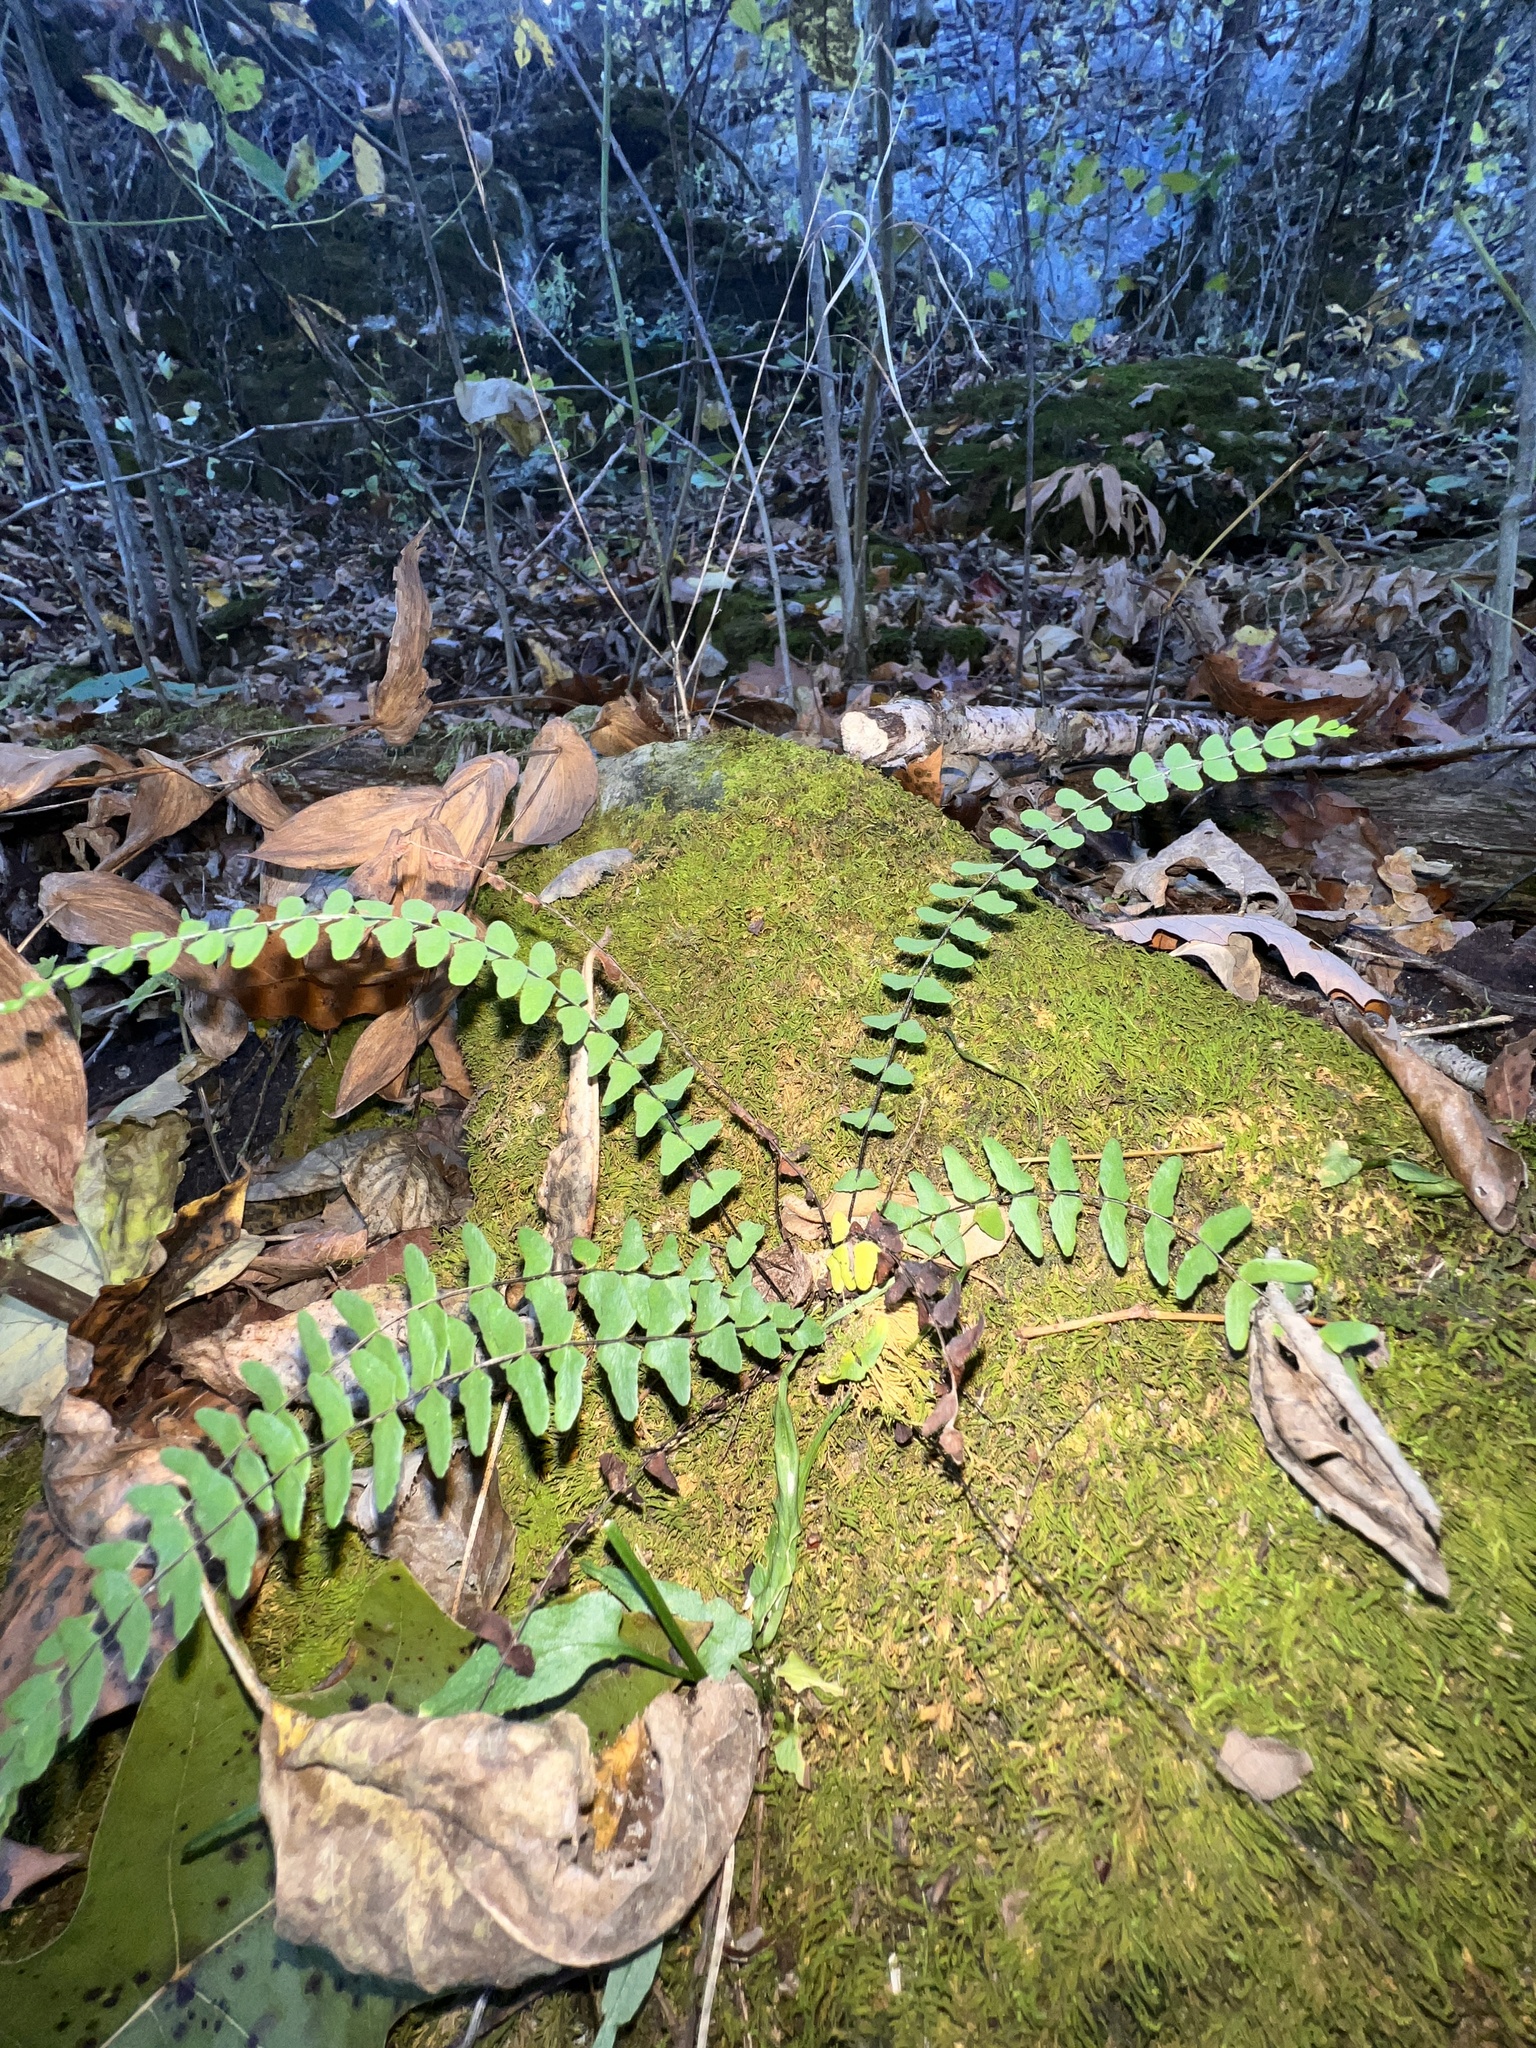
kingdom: Plantae
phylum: Tracheophyta
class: Polypodiopsida
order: Polypodiales
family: Aspleniaceae
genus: Asplenium
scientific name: Asplenium resiliens
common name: Blackstem spleenwort
